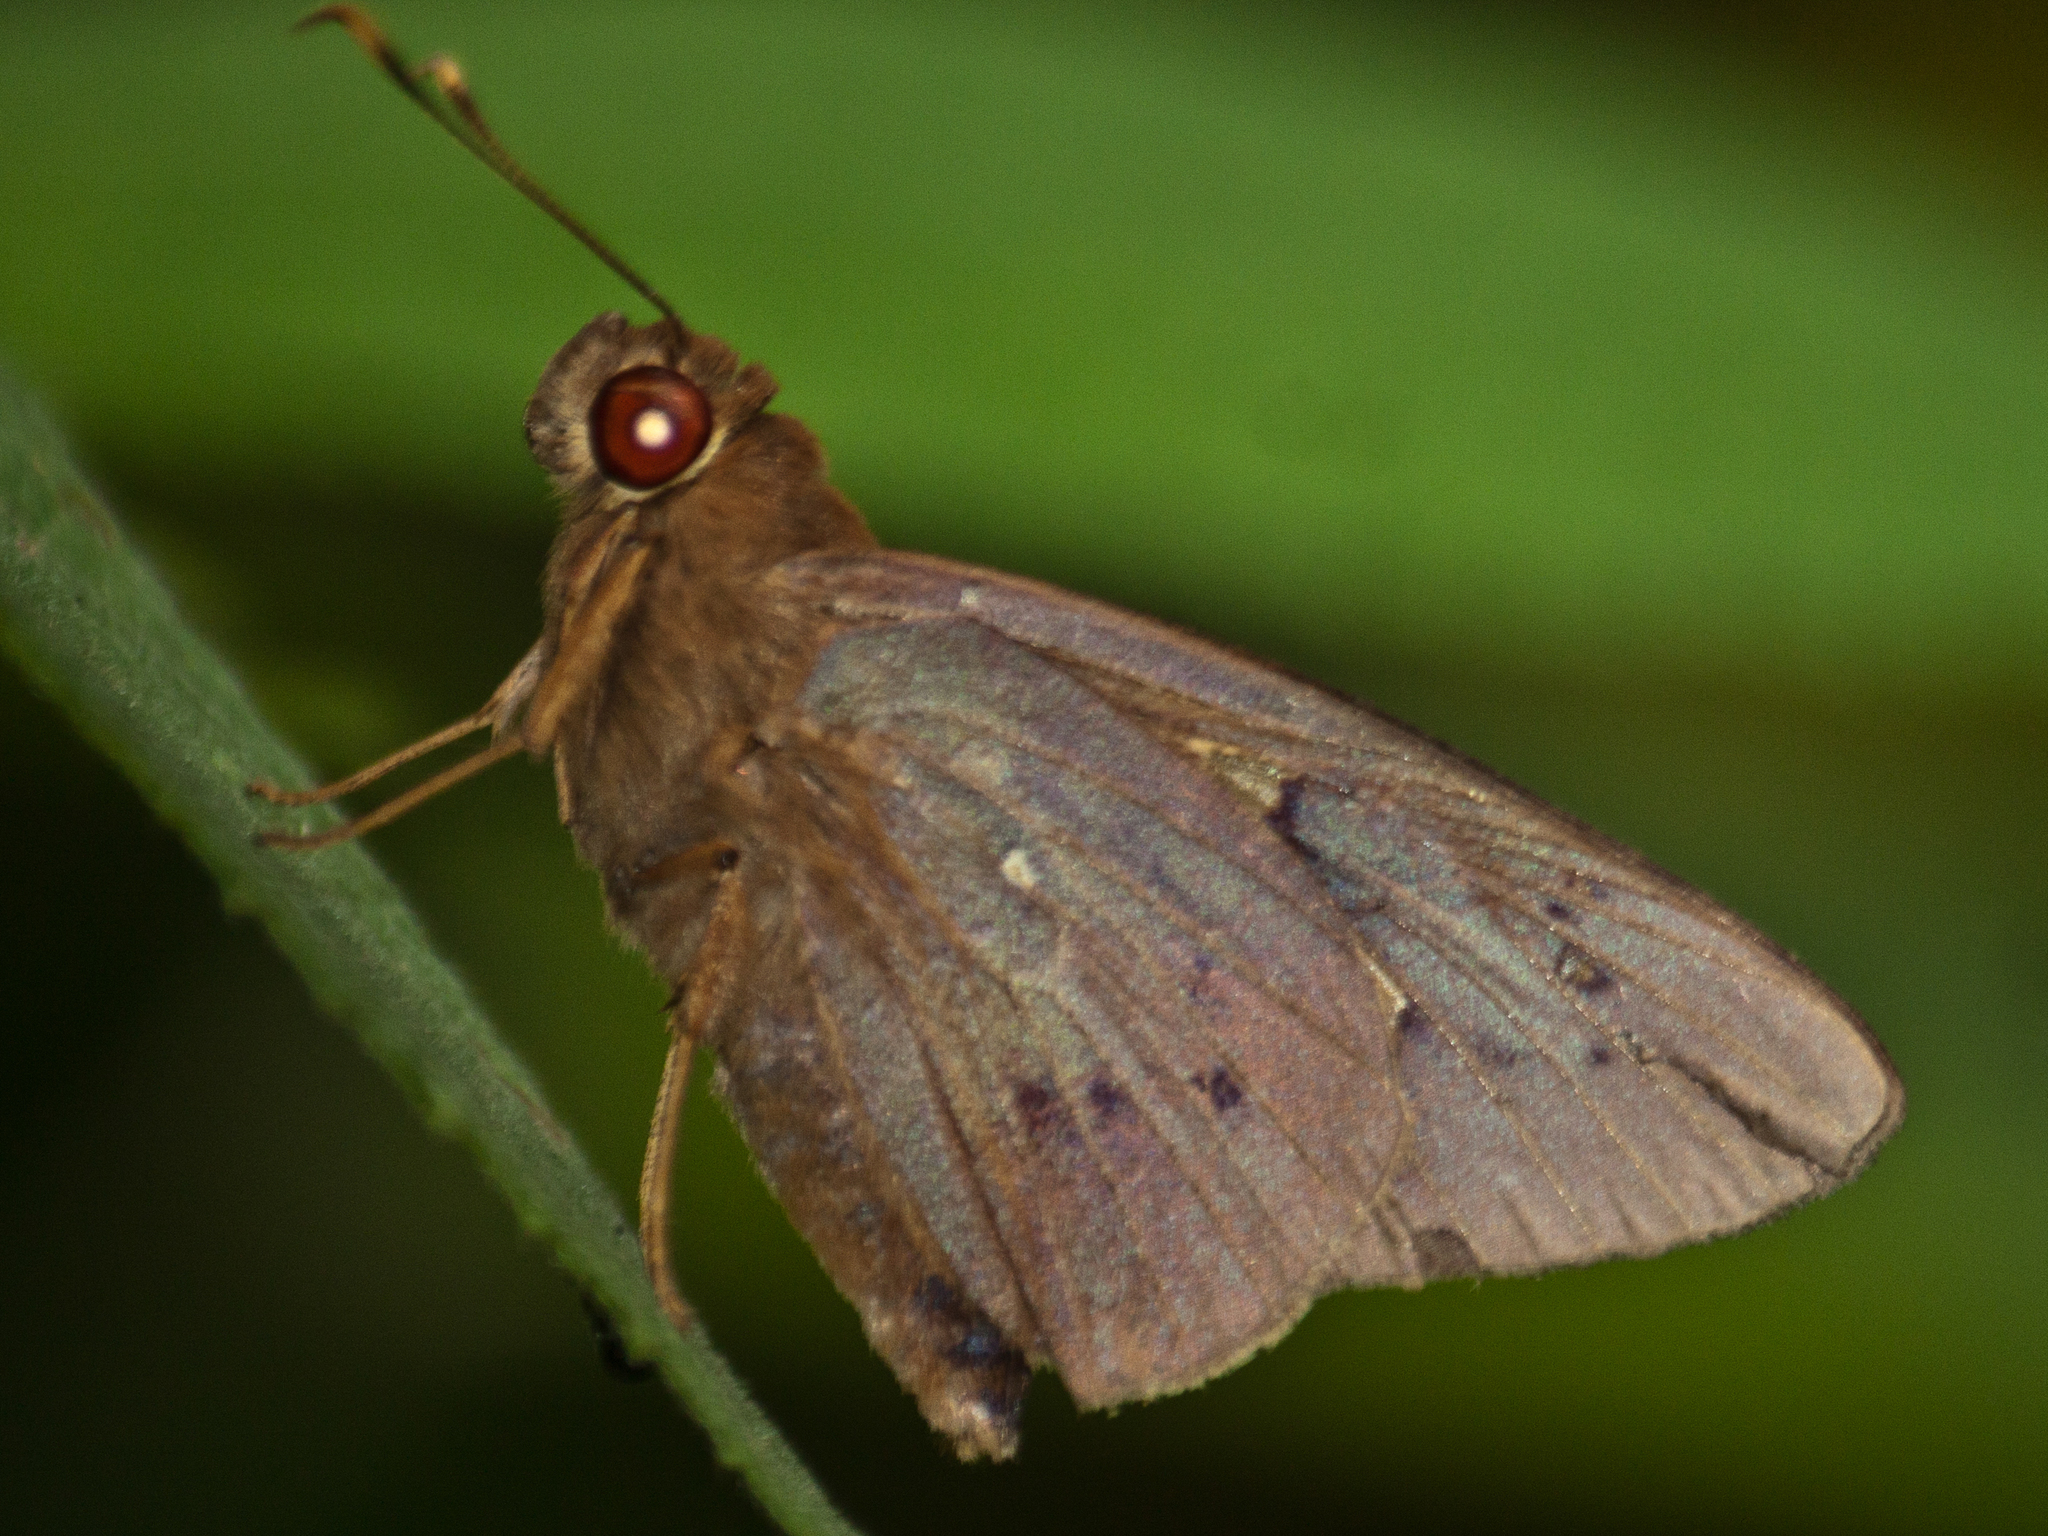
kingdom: Animalia
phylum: Arthropoda
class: Insecta
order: Lepidoptera
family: Hesperiidae
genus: Hidari
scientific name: Hidari irava
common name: Coconut skipper
